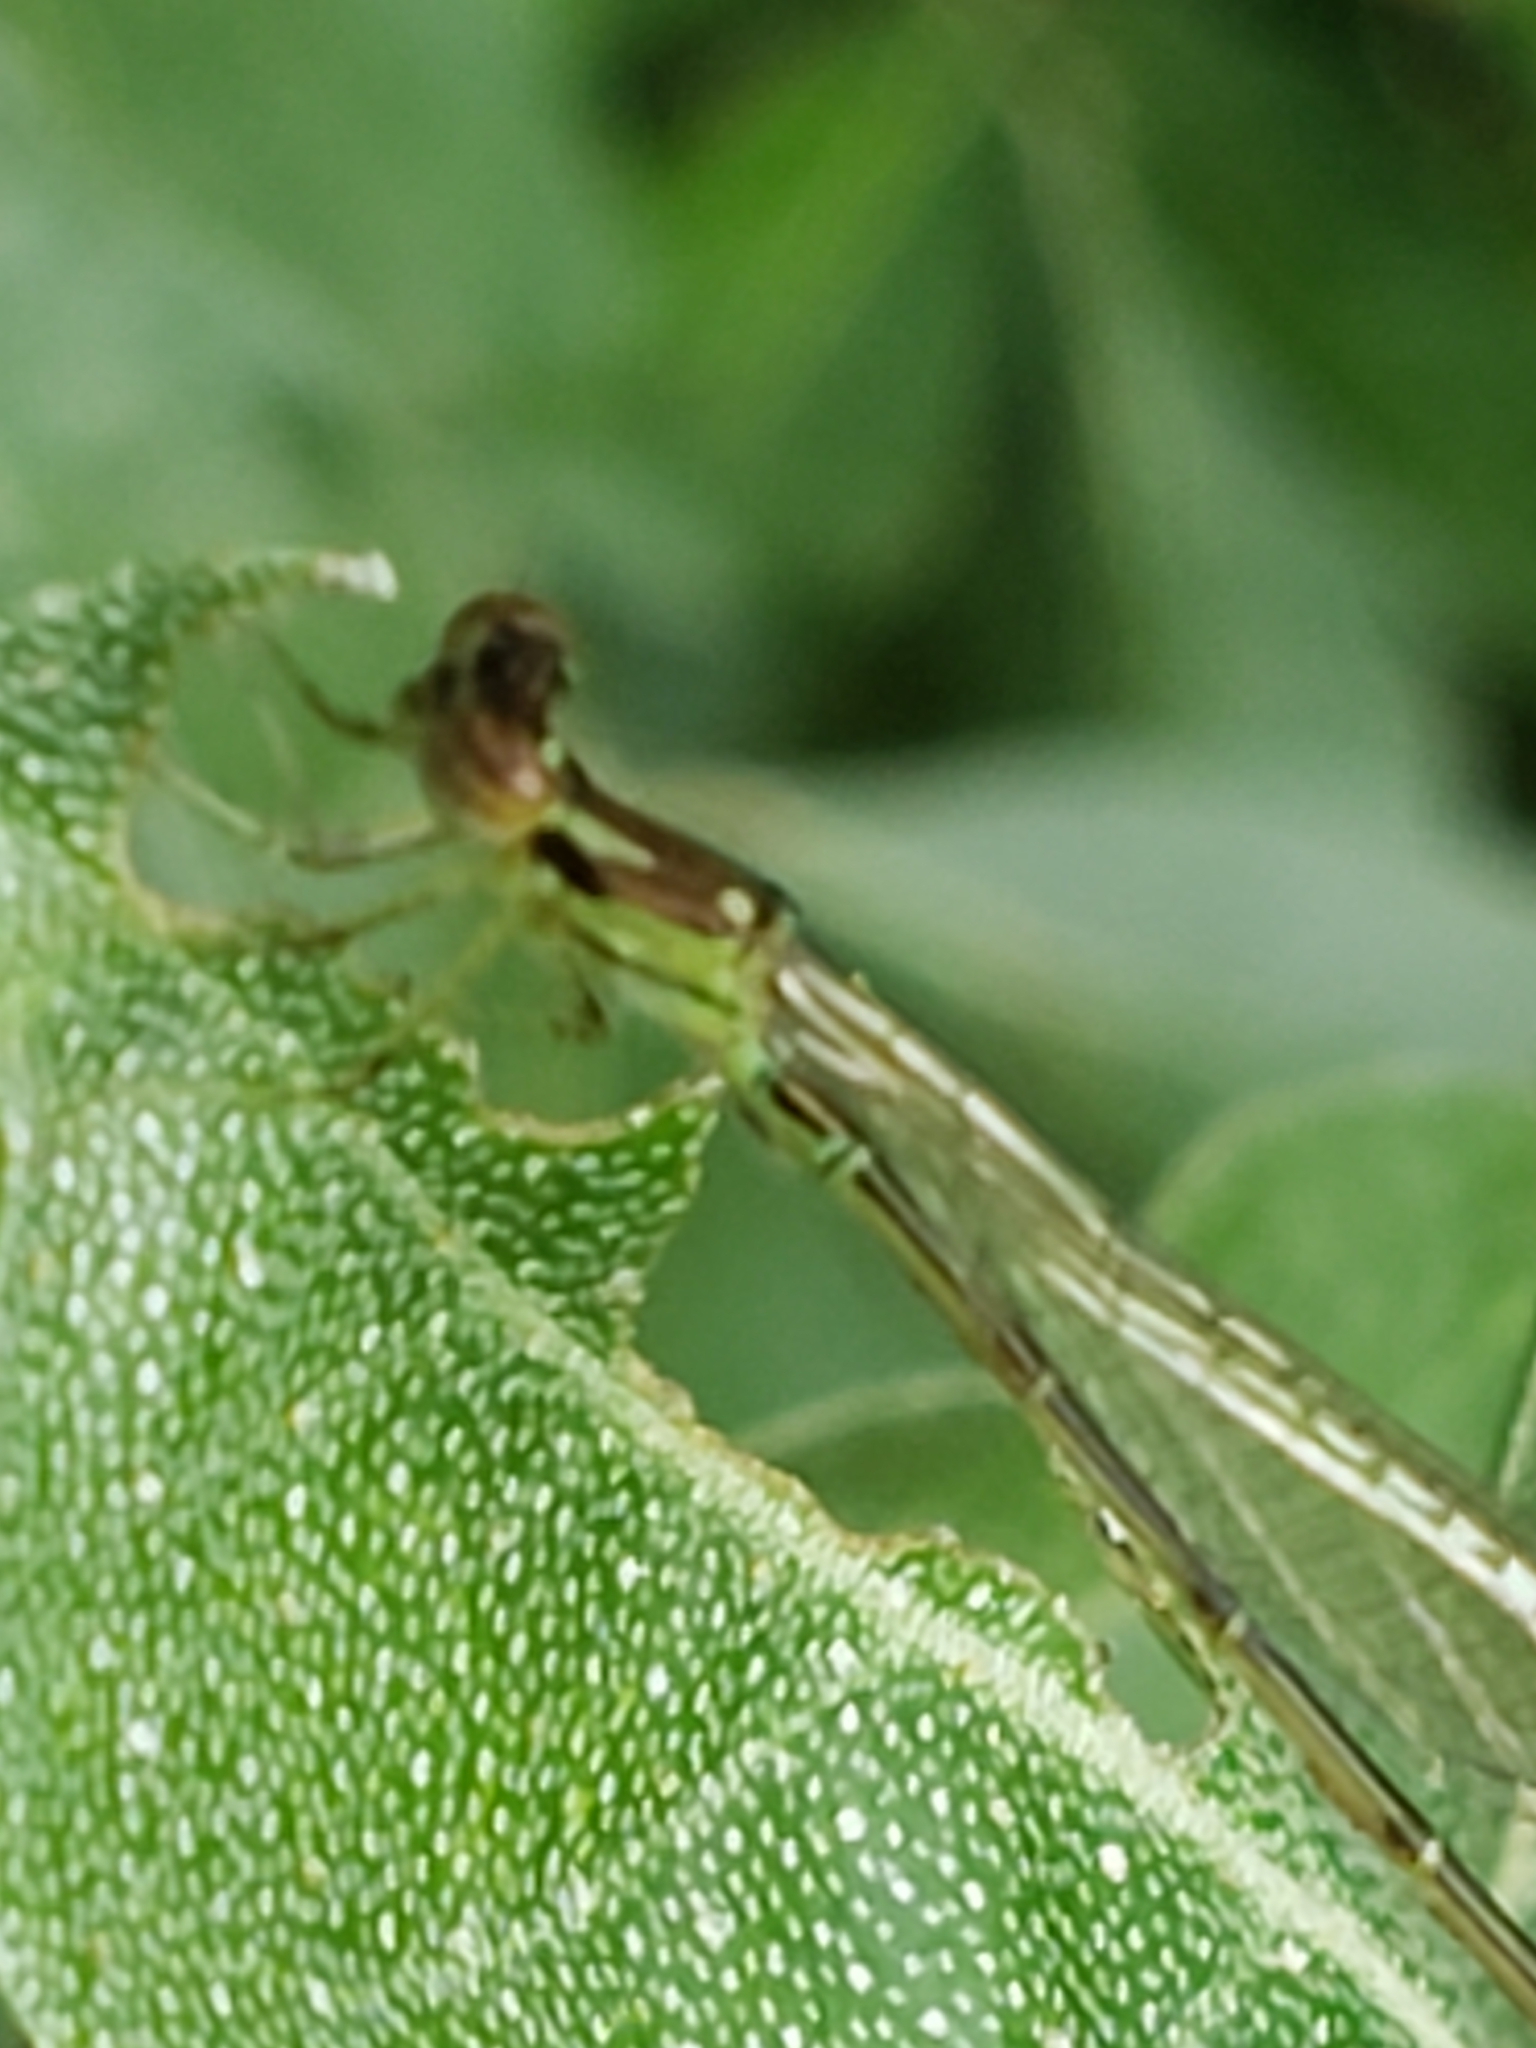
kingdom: Animalia
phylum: Arthropoda
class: Insecta
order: Odonata
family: Coenagrionidae
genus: Ischnura
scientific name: Ischnura posita
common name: Fragile forktail
